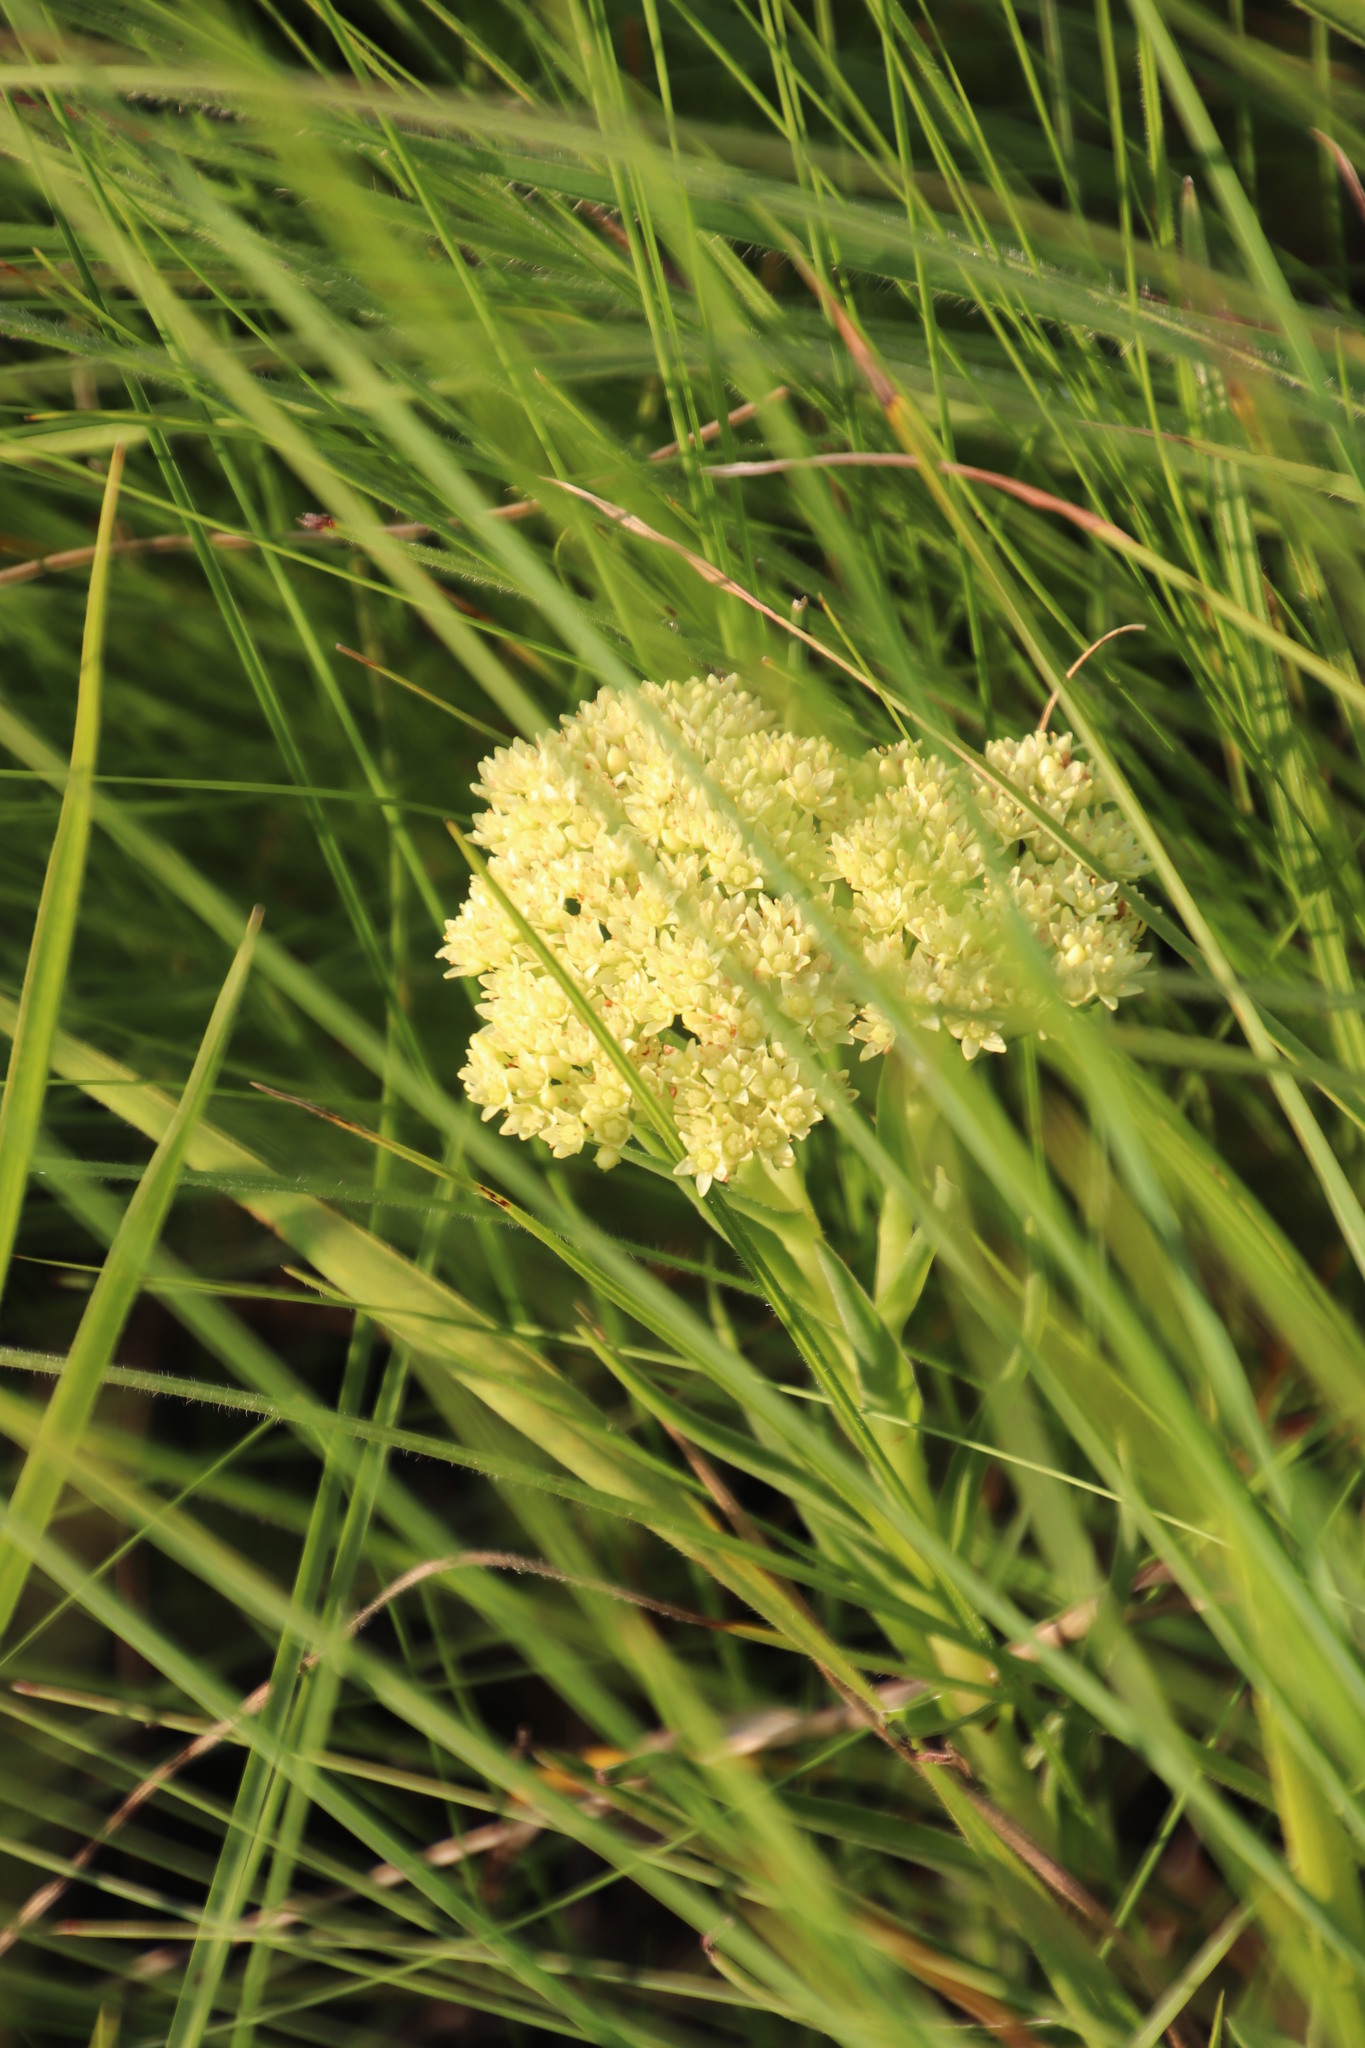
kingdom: Plantae
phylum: Tracheophyta
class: Magnoliopsida
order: Saxifragales
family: Crassulaceae
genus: Crassula
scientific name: Crassula vaginata
